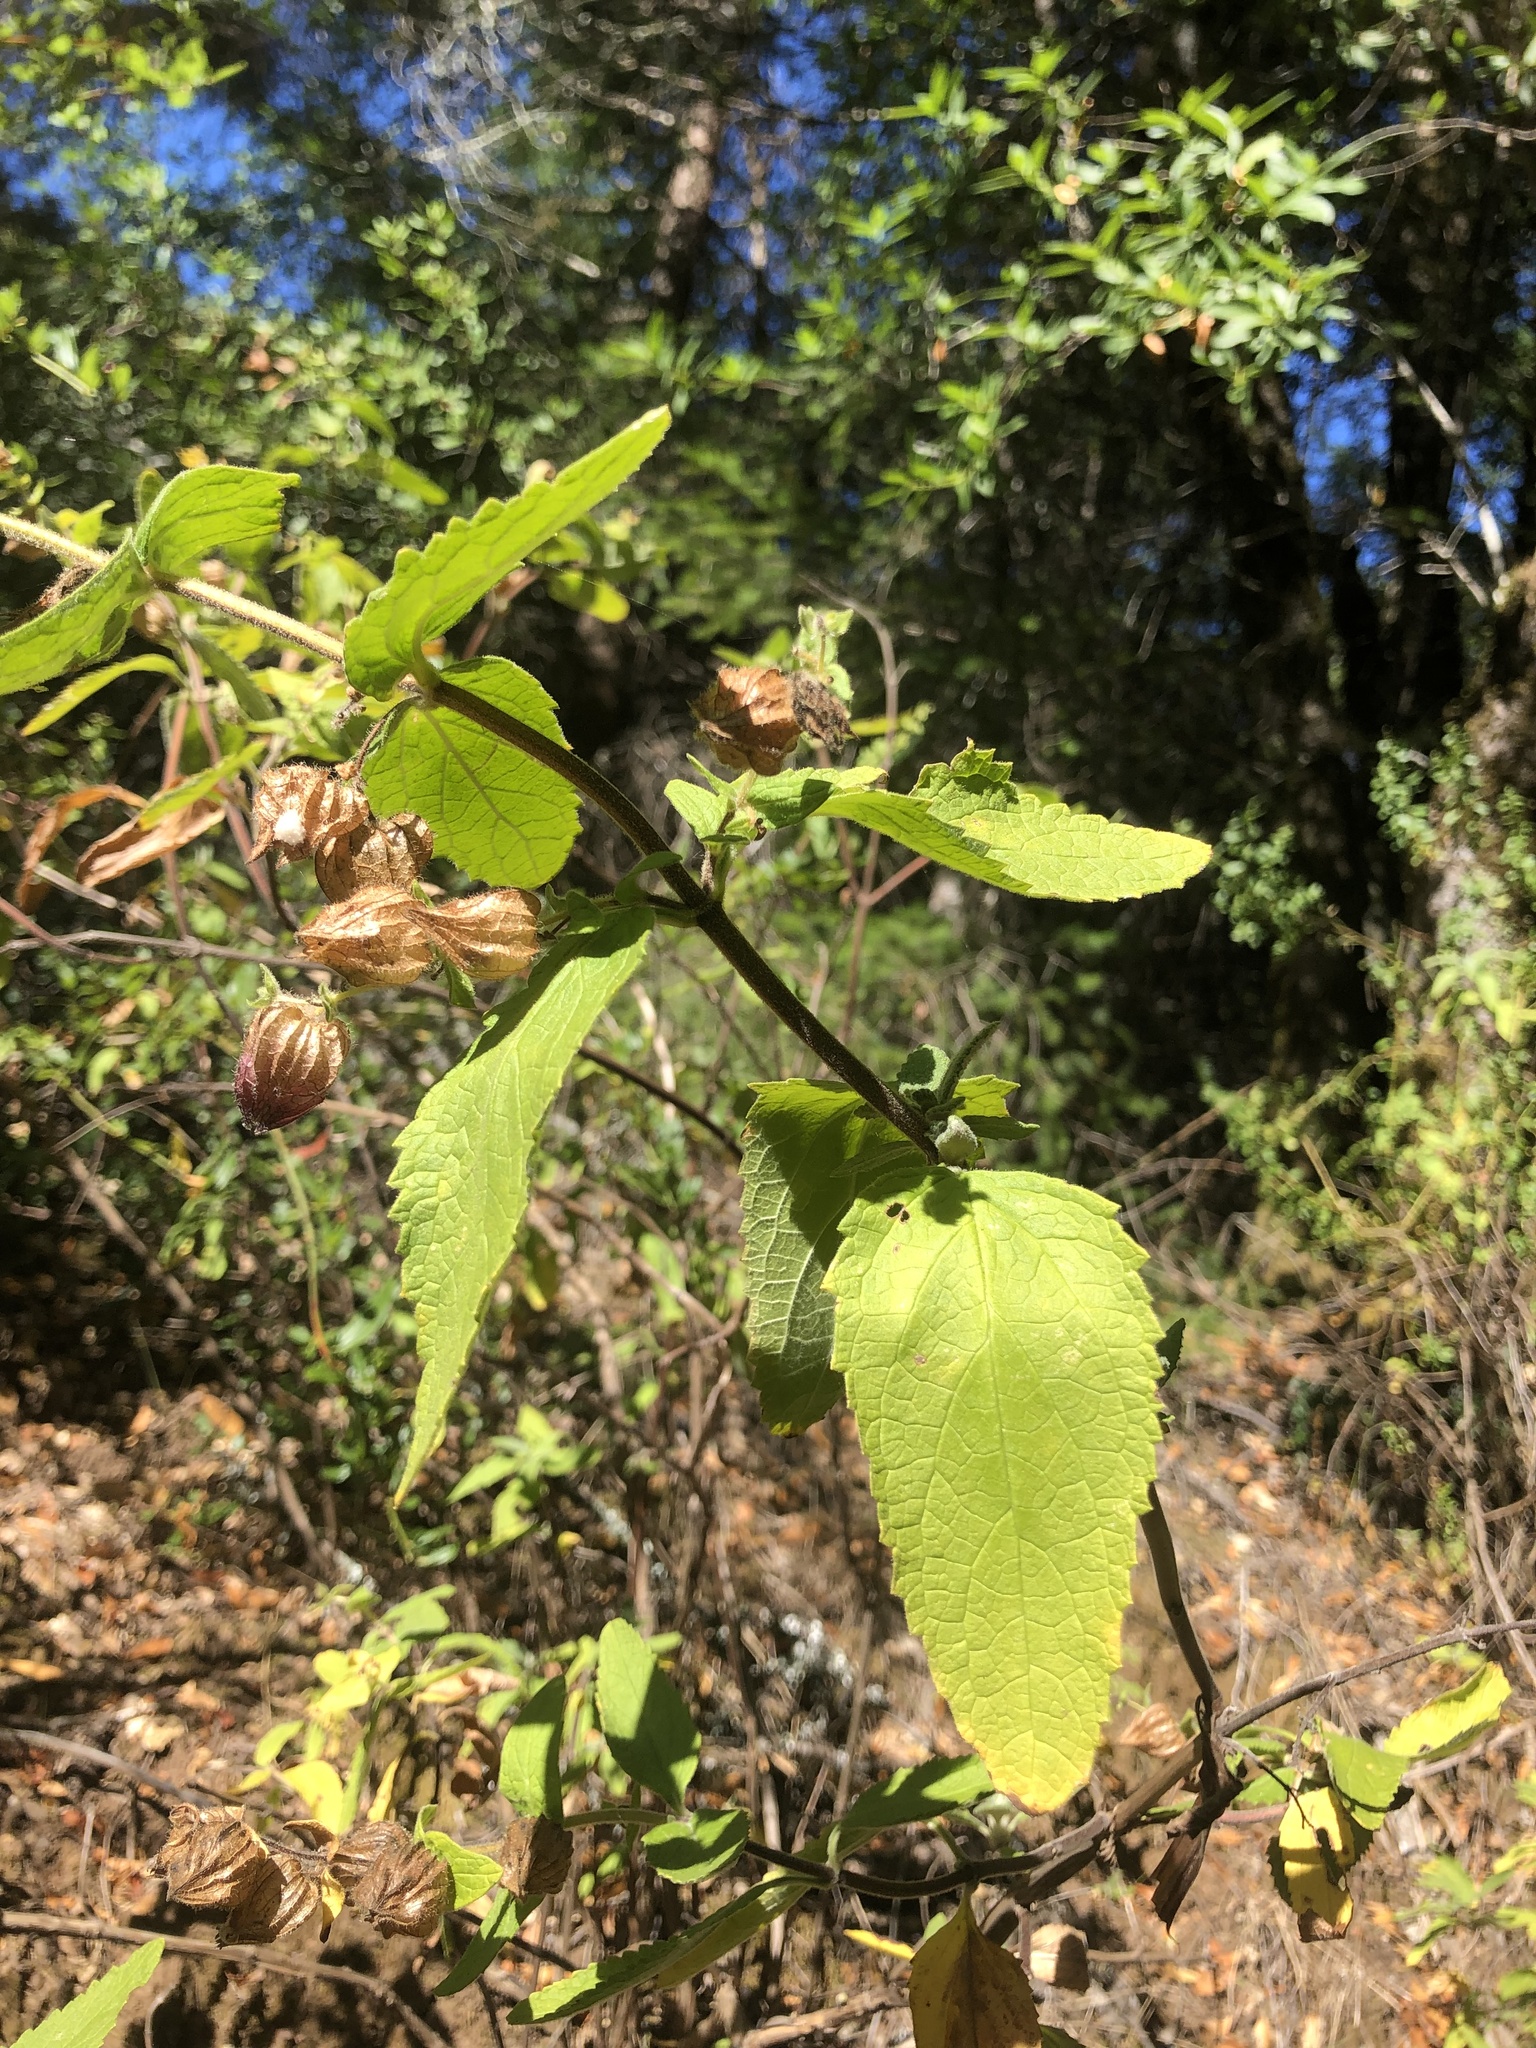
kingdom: Plantae
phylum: Tracheophyta
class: Magnoliopsida
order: Lamiales
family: Lamiaceae
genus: Lepechinia
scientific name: Lepechinia calycina
